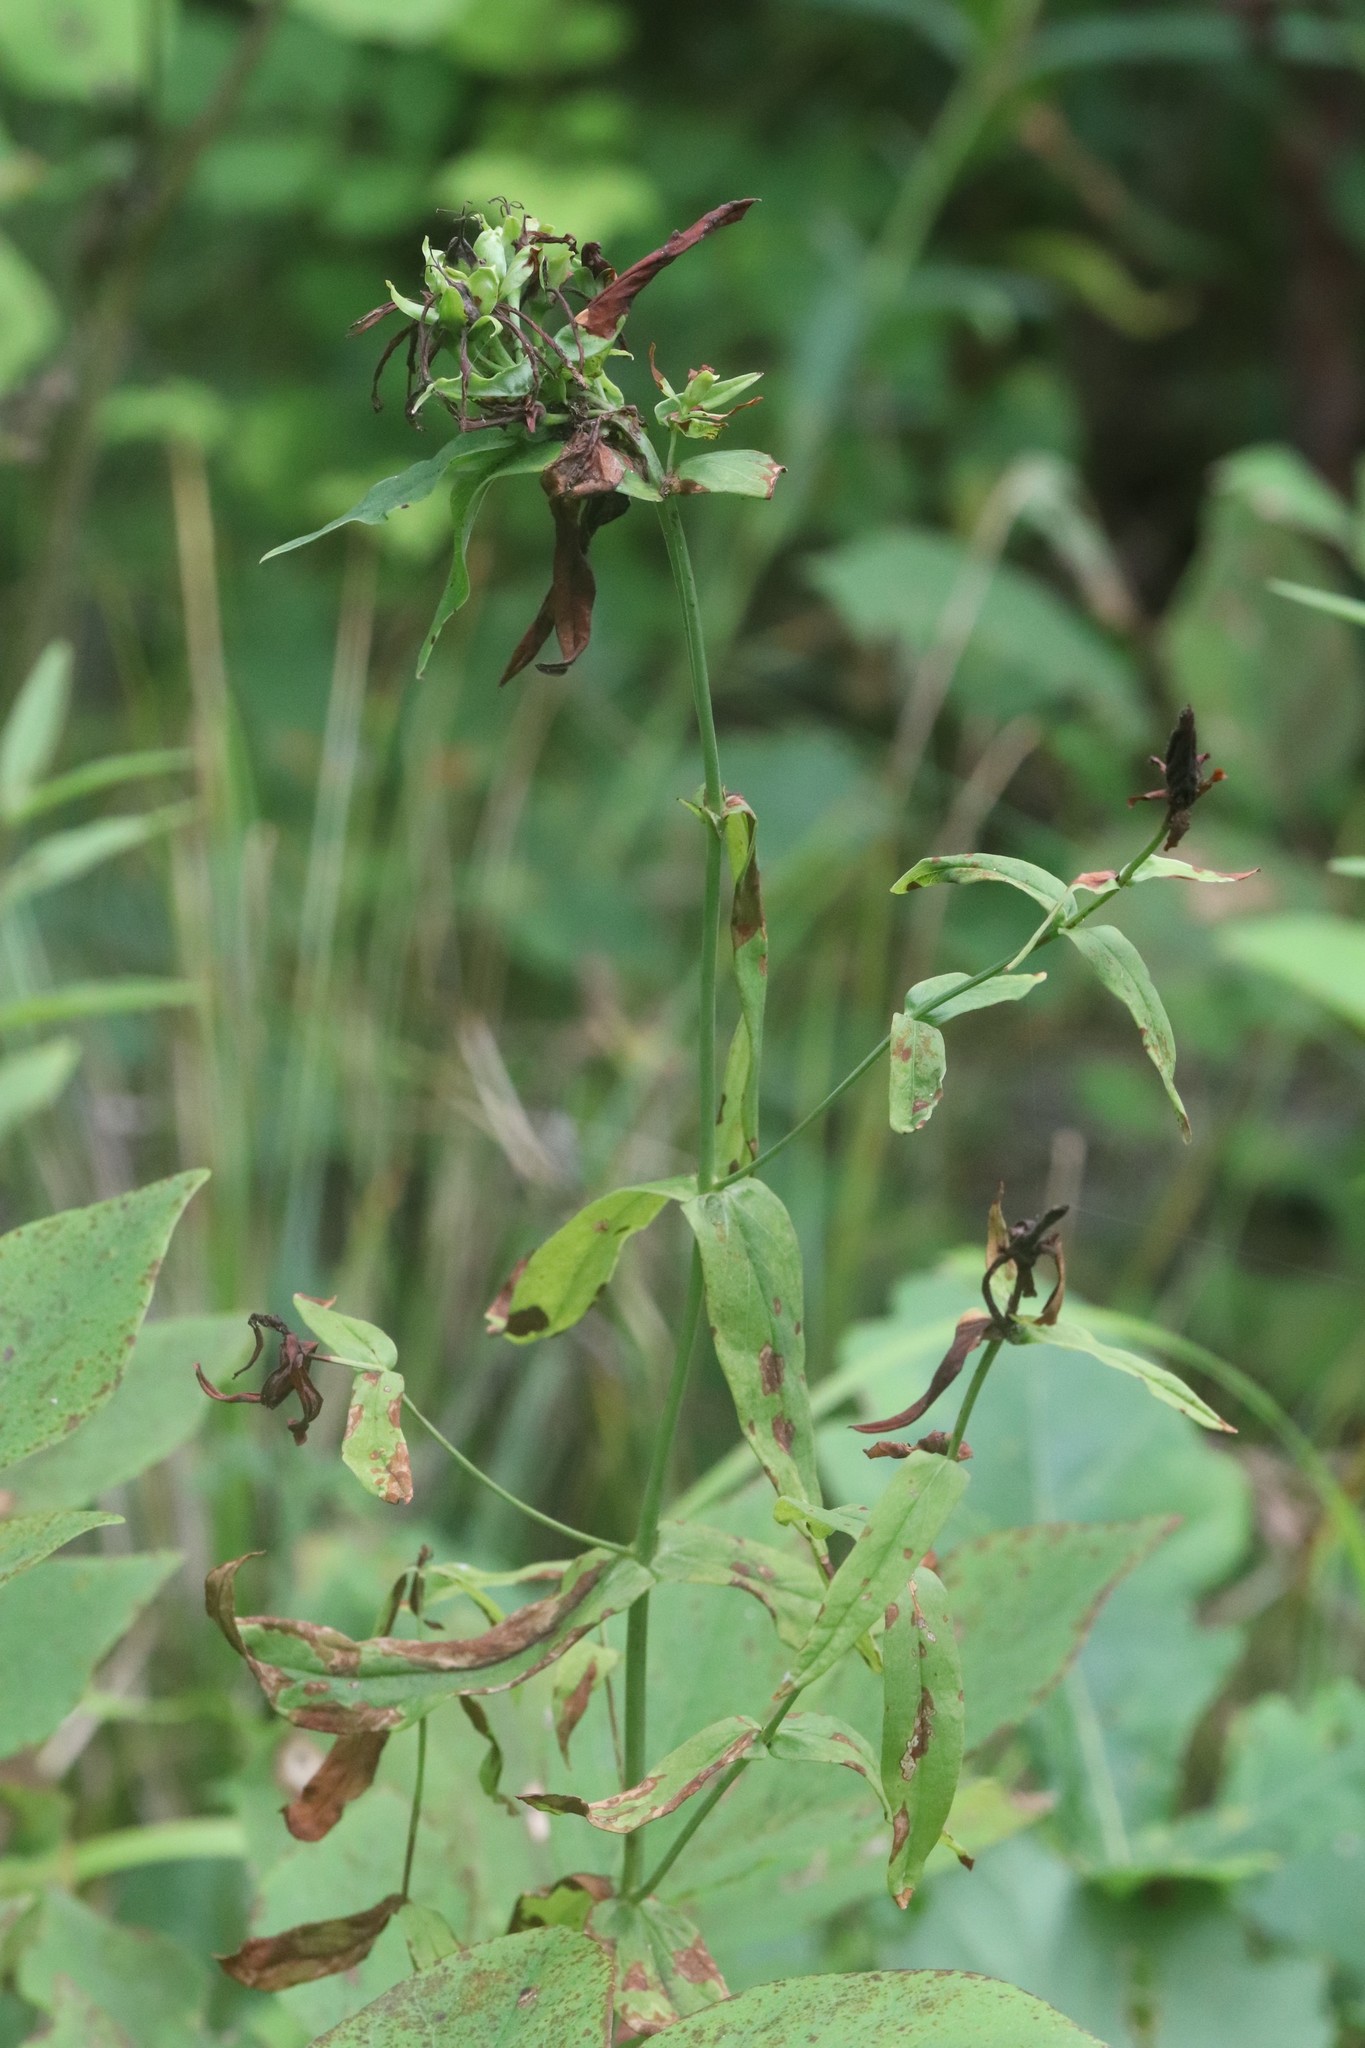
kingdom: Plantae
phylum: Tracheophyta
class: Magnoliopsida
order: Malpighiales
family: Hypericaceae
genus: Hypericum
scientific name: Hypericum ascyron
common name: Giant st. john's-wort
